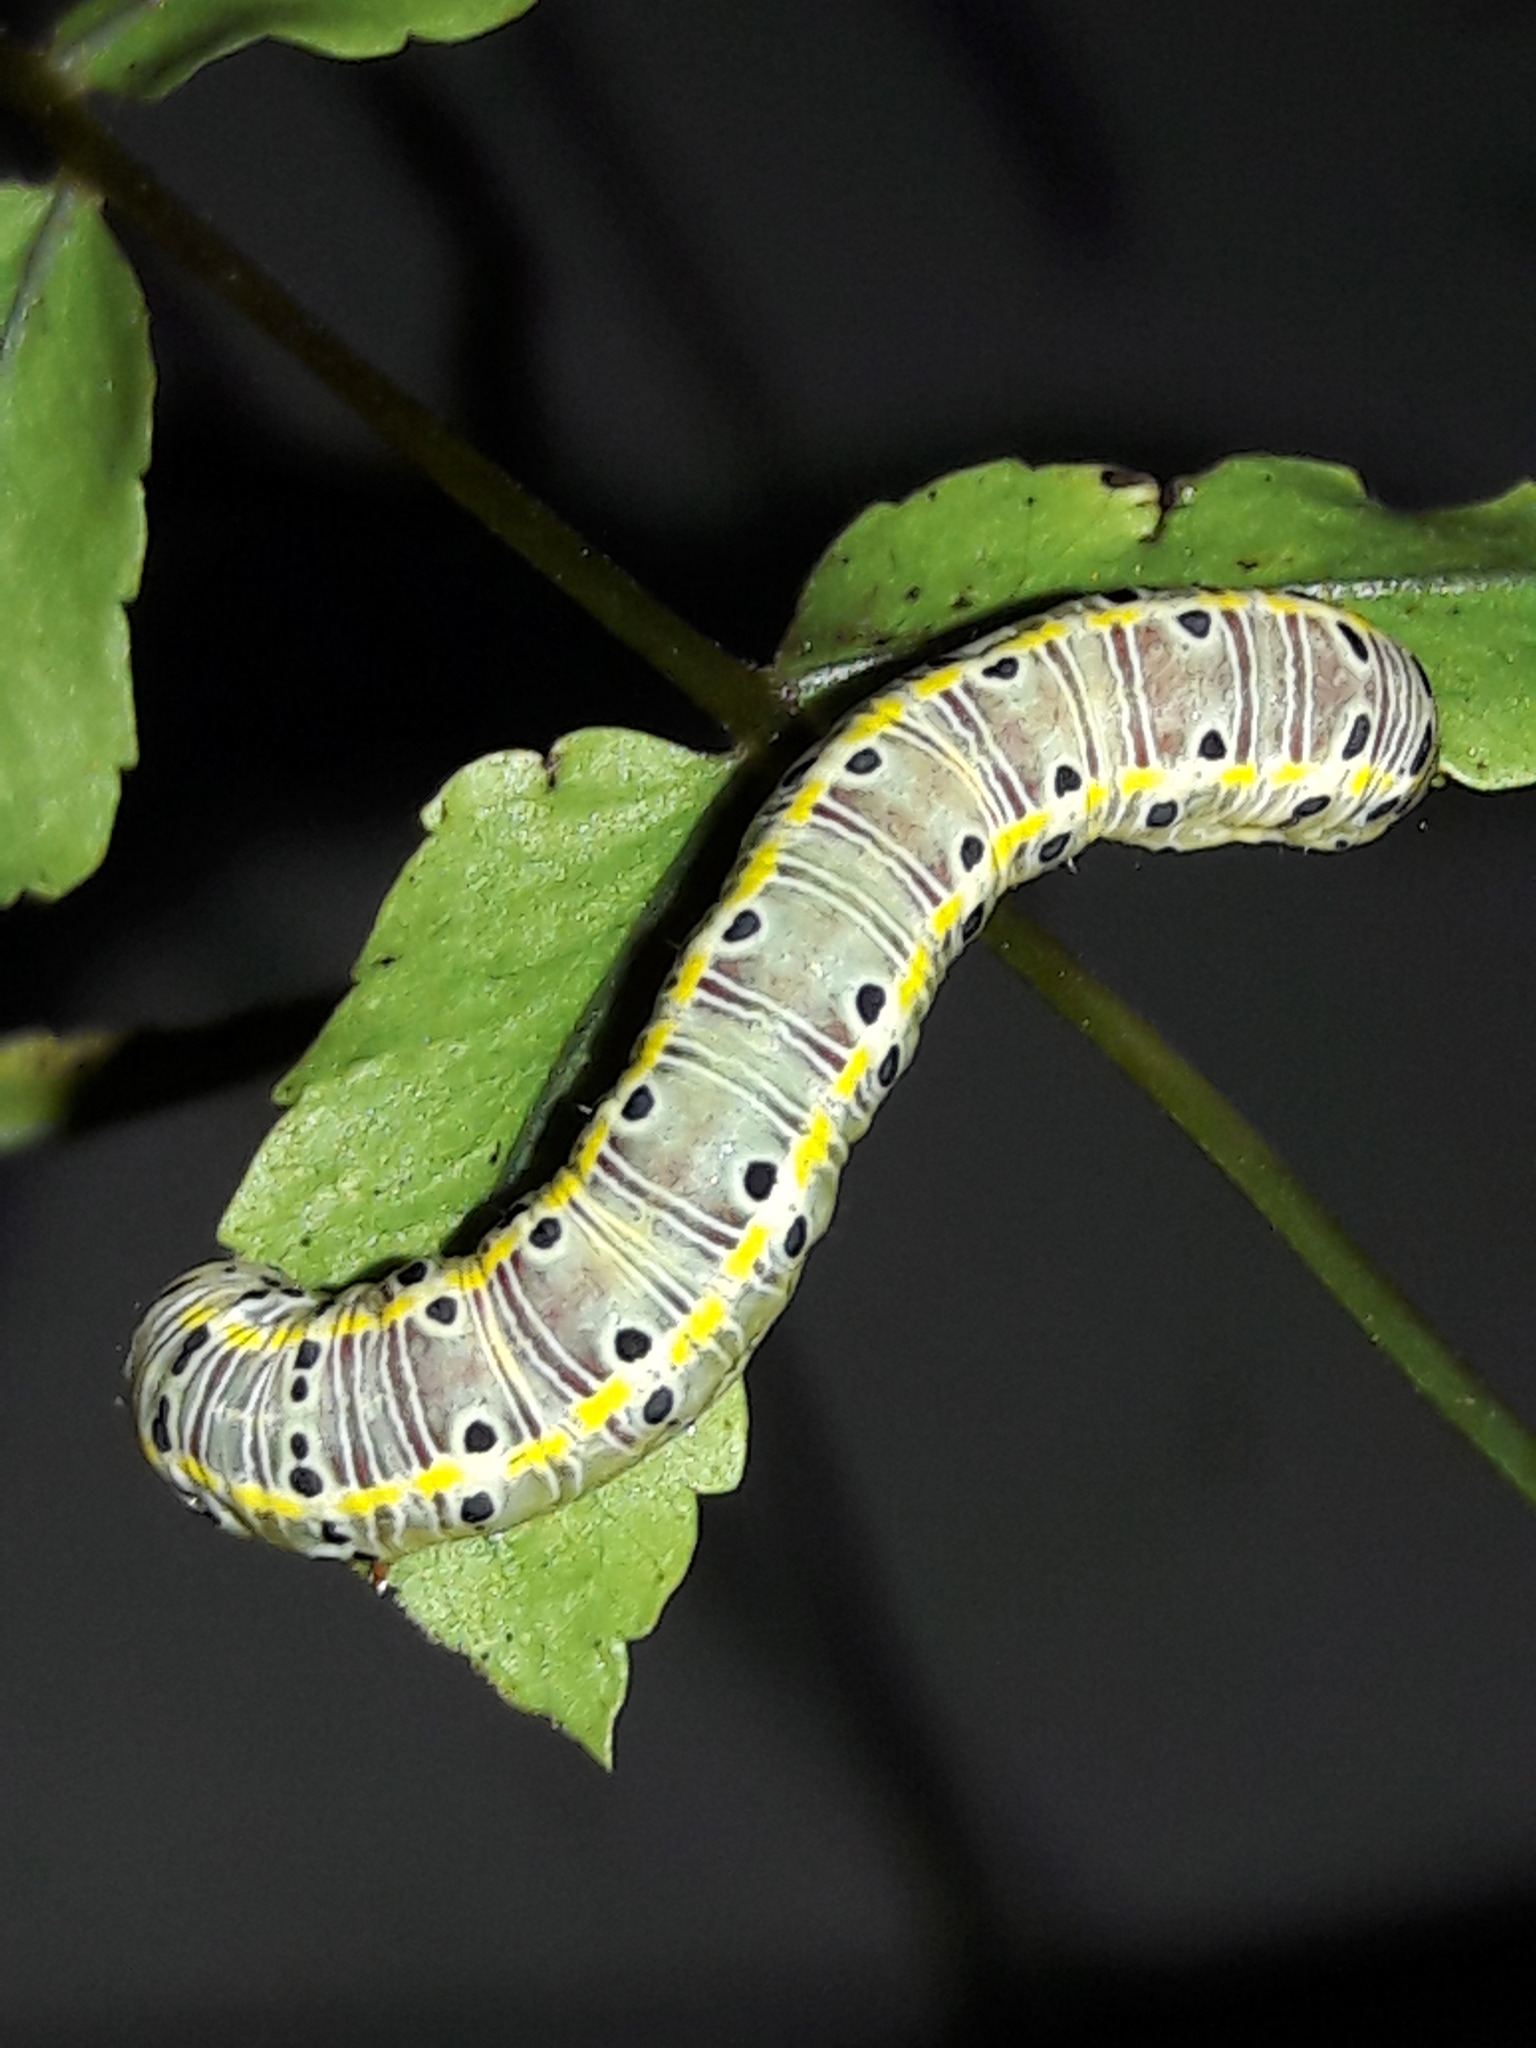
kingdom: Animalia
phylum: Arthropoda
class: Insecta
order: Lepidoptera
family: Noctuidae
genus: Argyrosticta
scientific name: Argyrosticta decumana
